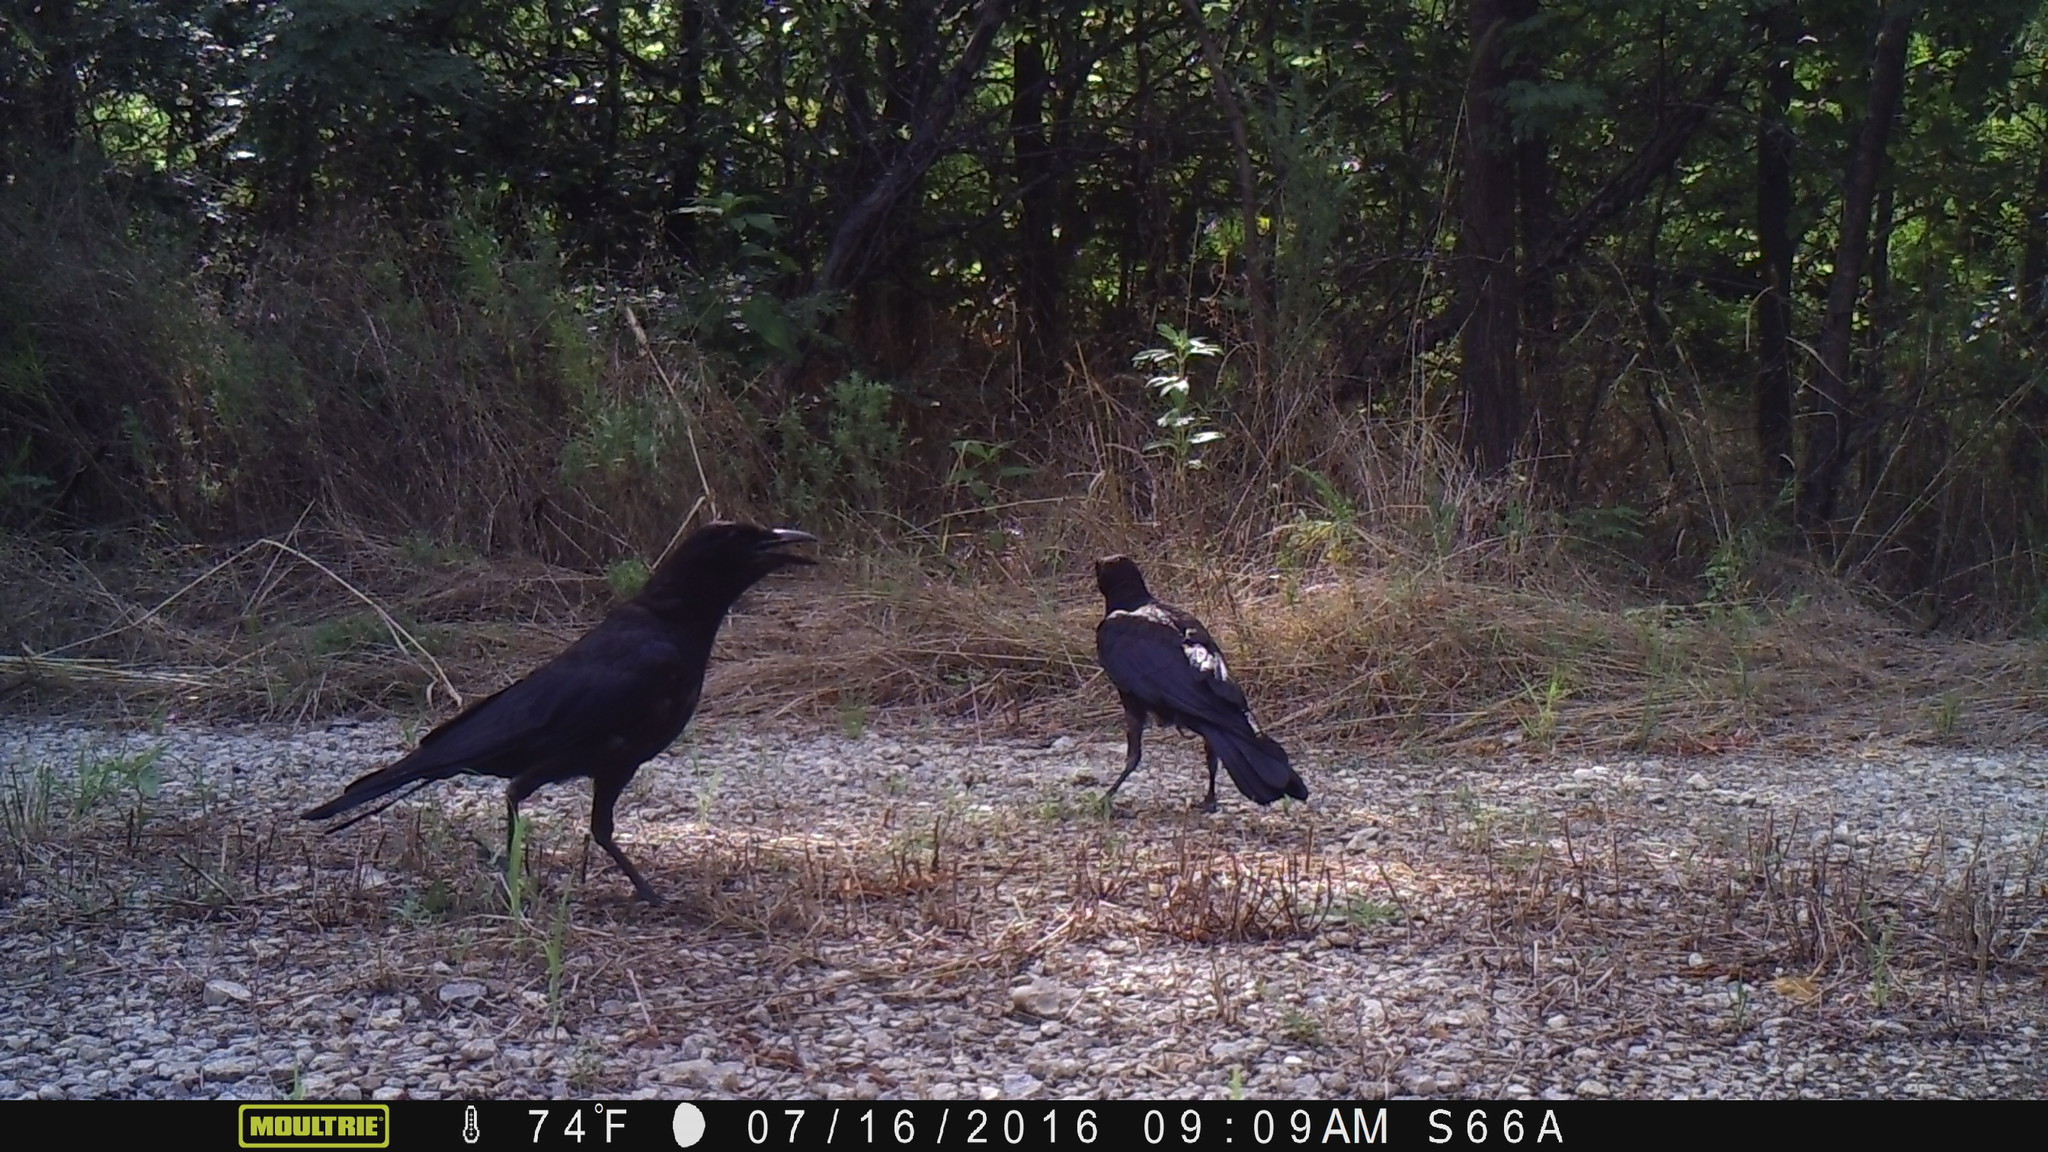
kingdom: Animalia
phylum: Chordata
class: Aves
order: Passeriformes
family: Corvidae
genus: Corvus
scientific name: Corvus brachyrhynchos
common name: American crow
